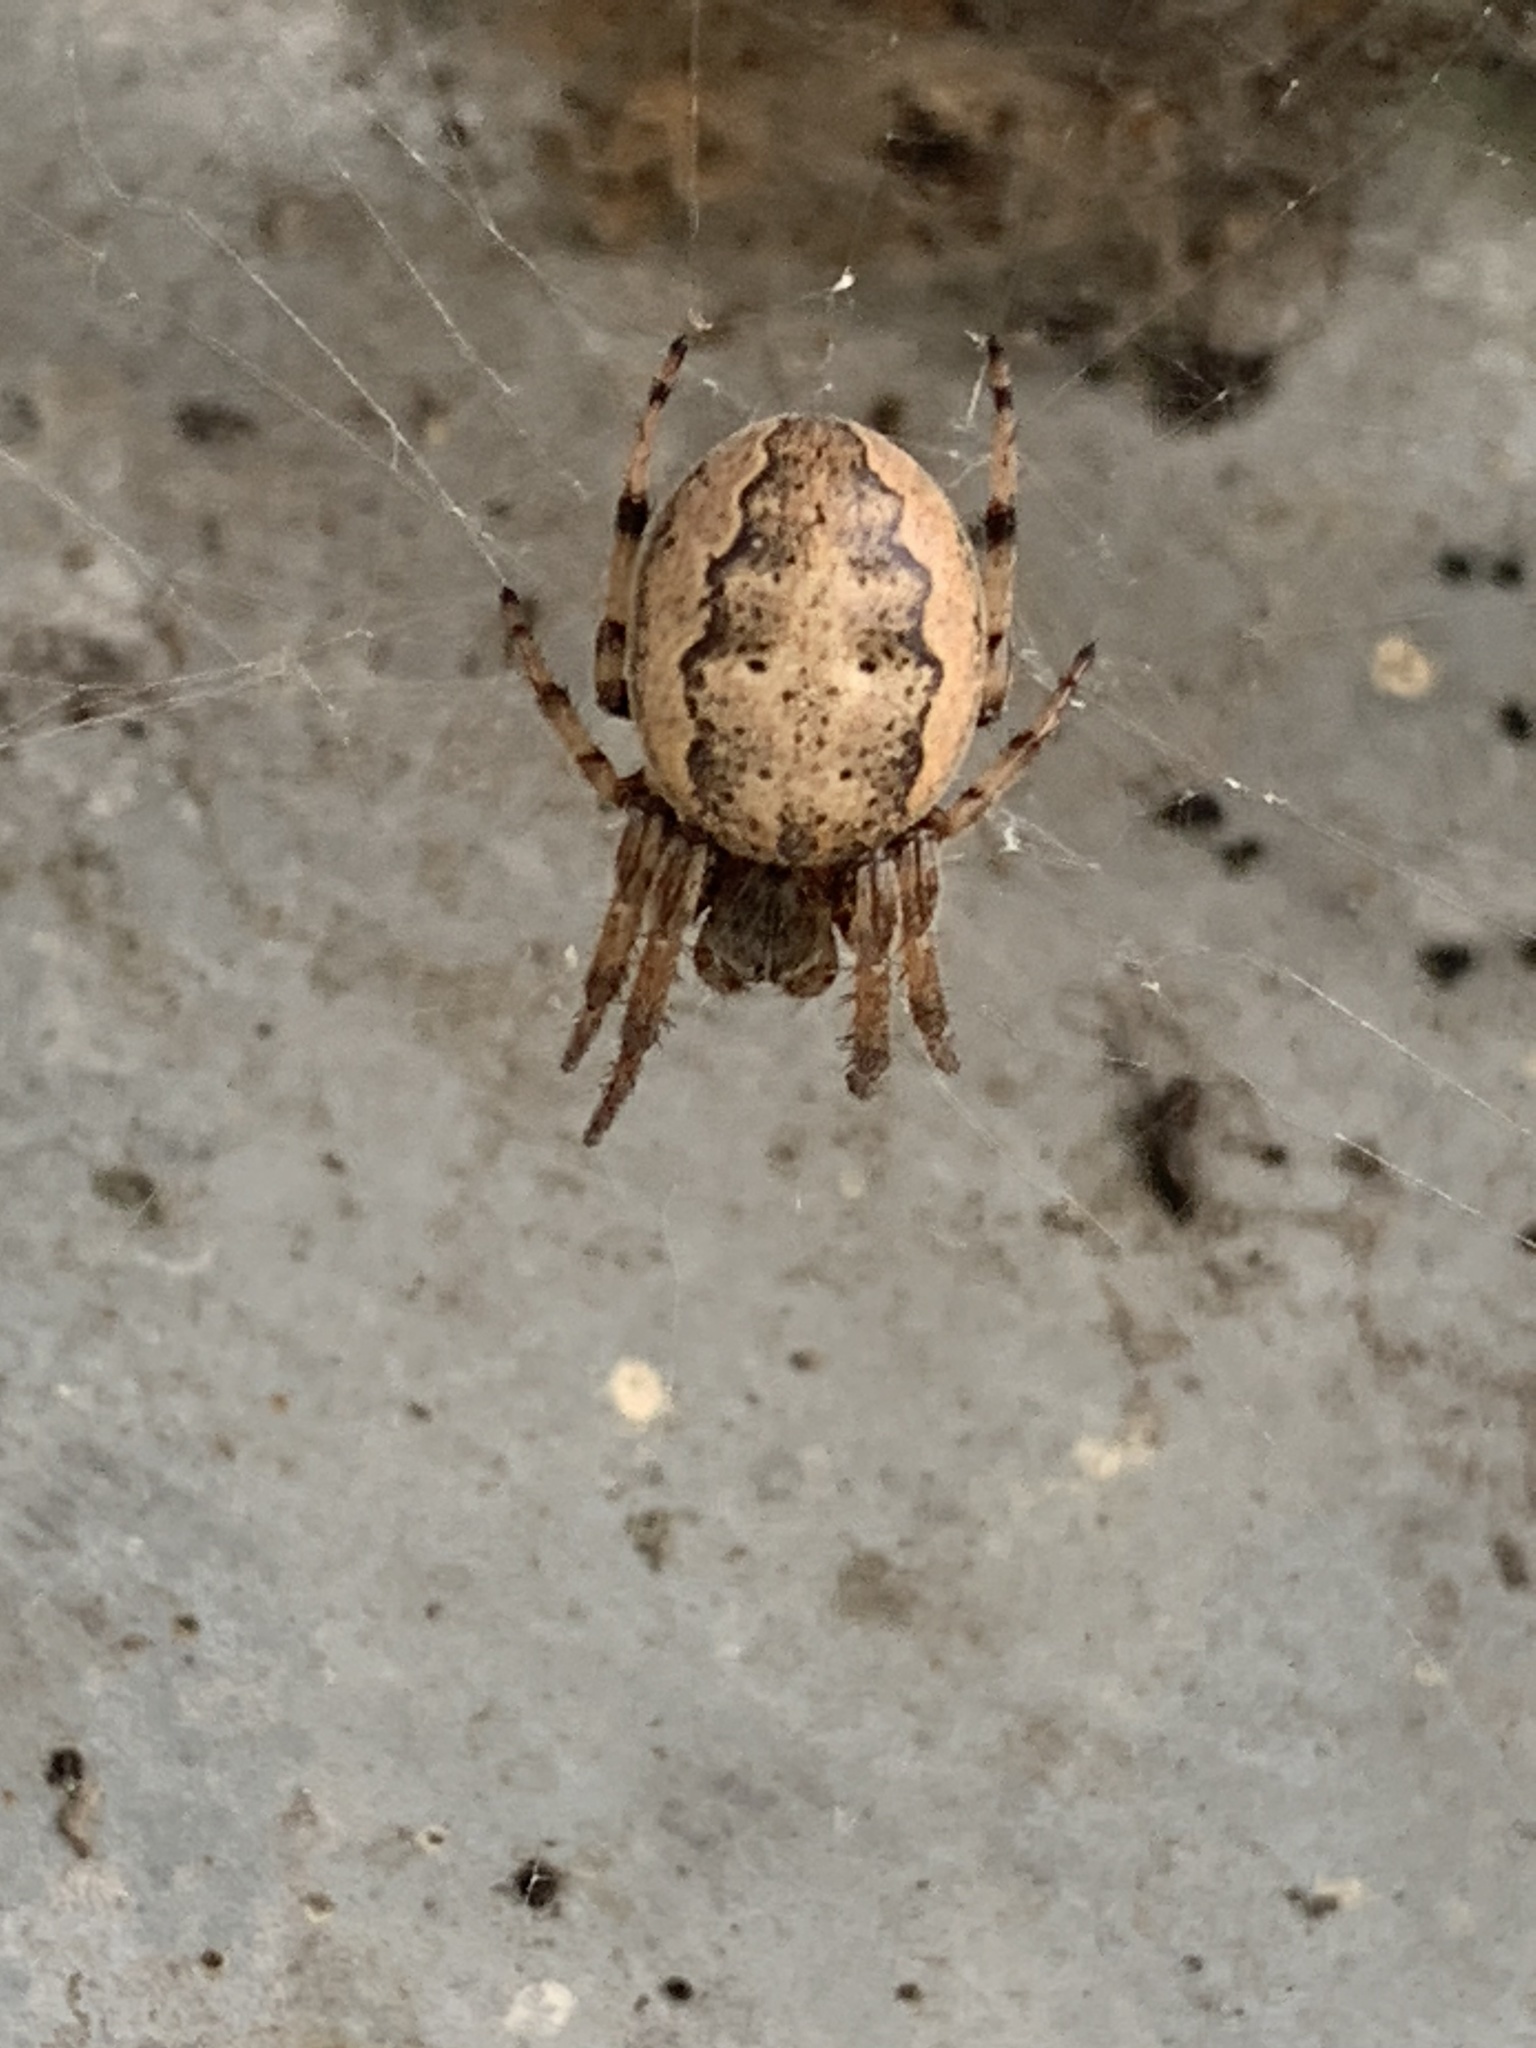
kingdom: Animalia
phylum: Arthropoda
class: Arachnida
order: Araneae
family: Araneidae
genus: Larinioides
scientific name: Larinioides cornutus
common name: Furrow orbweaver
